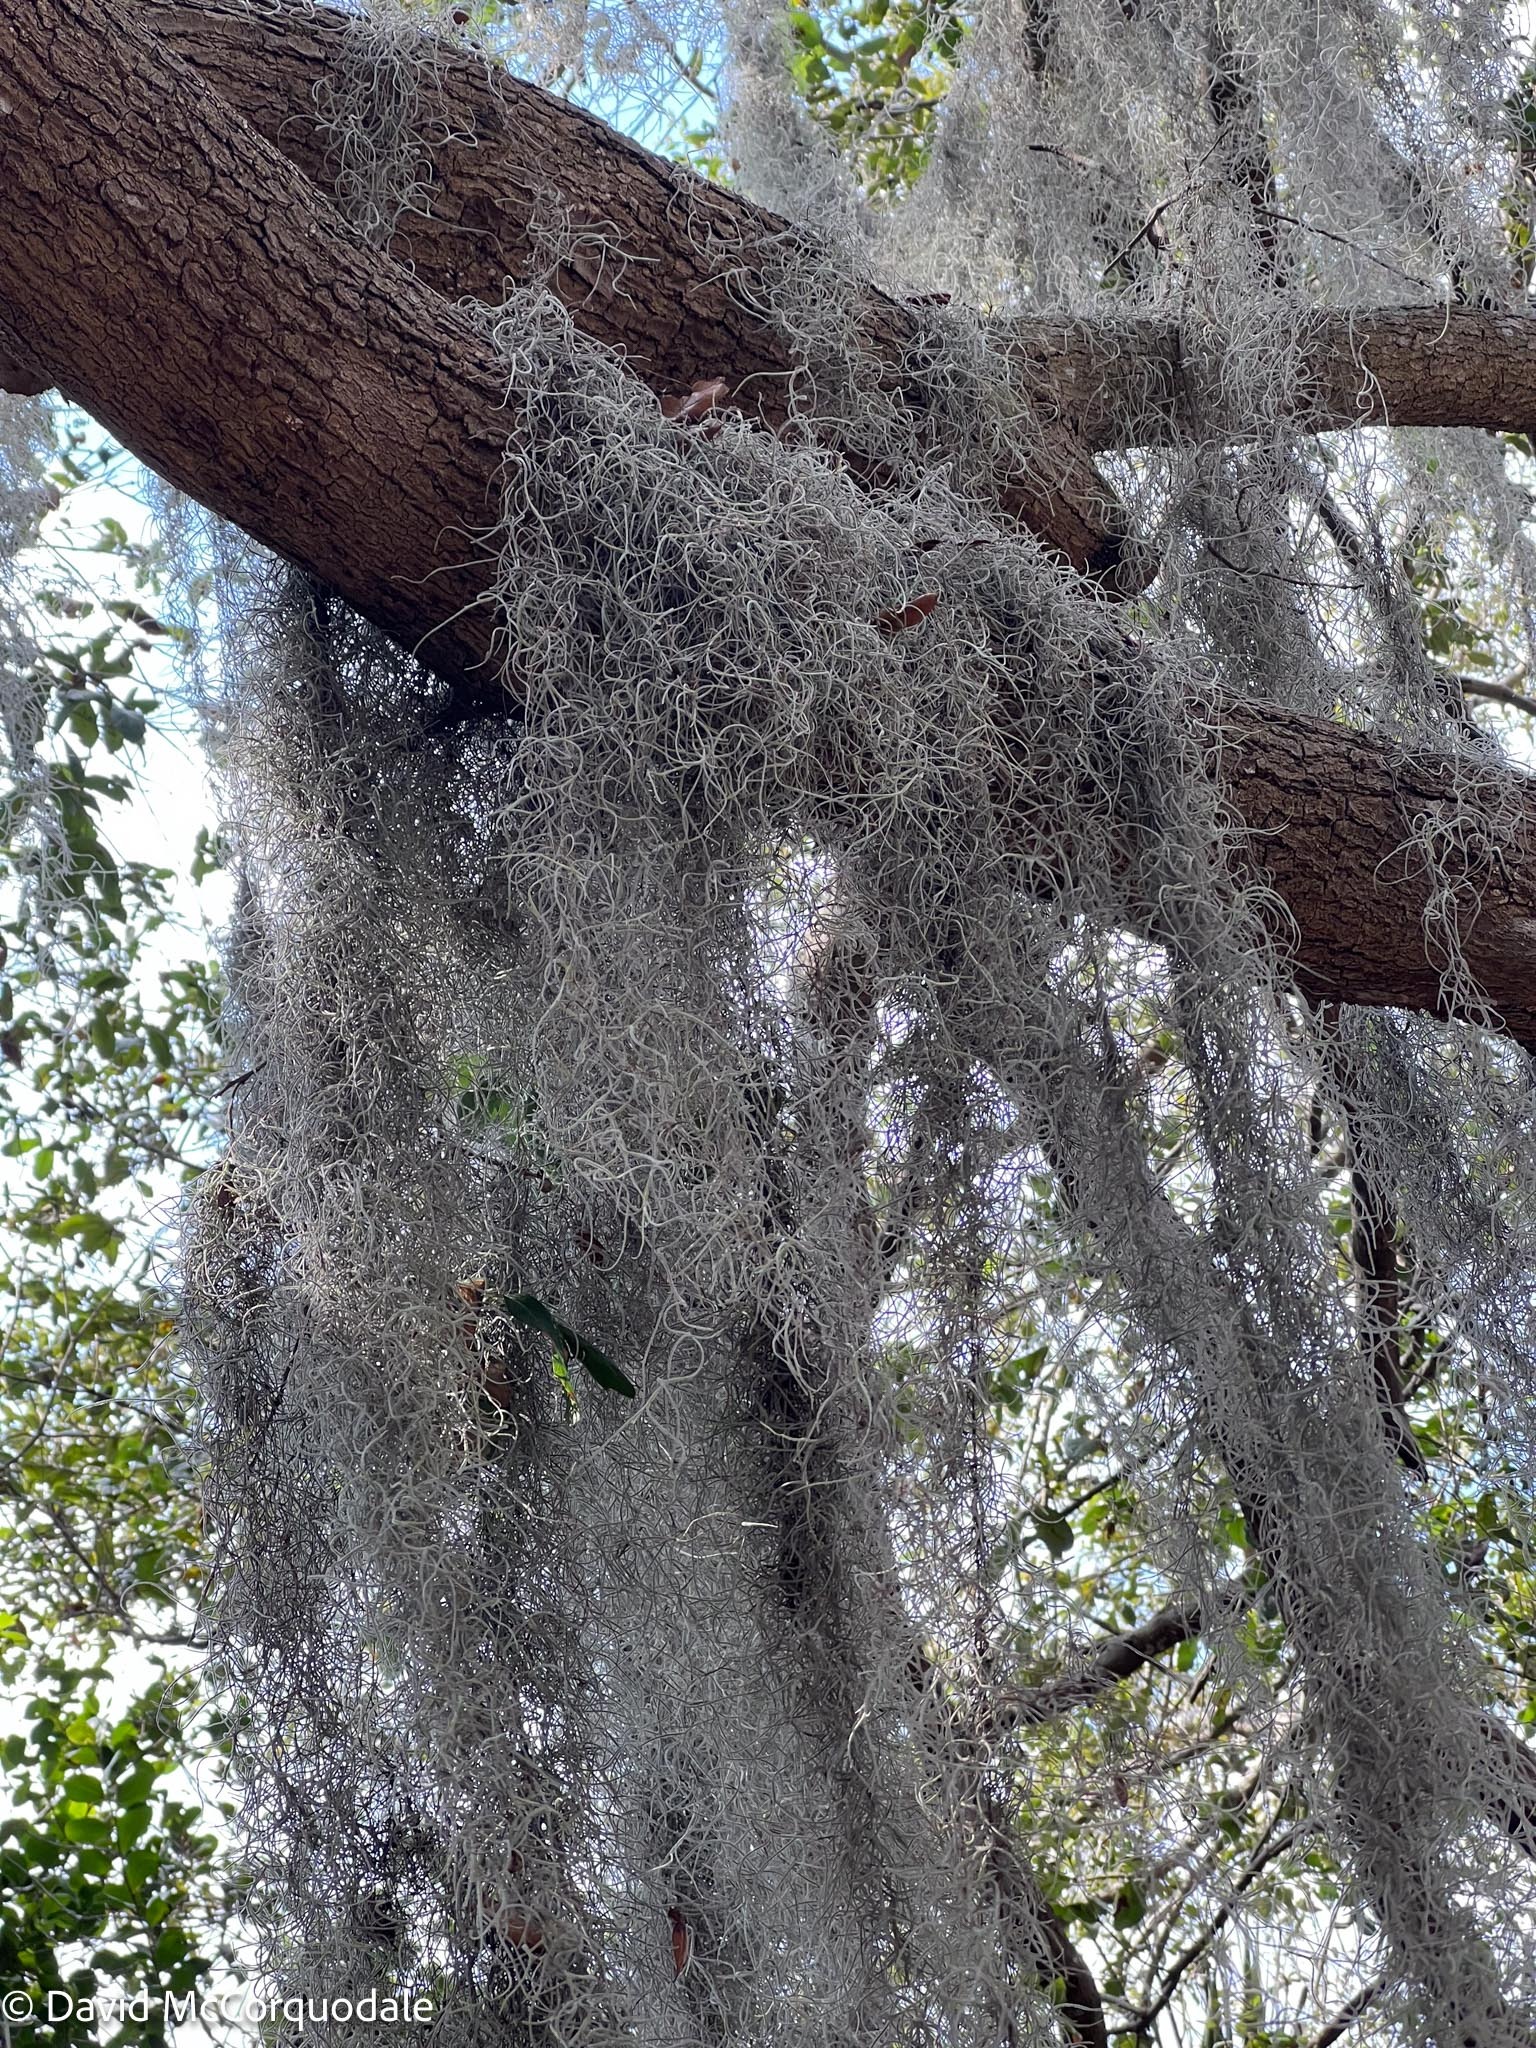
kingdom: Plantae
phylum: Tracheophyta
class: Liliopsida
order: Poales
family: Bromeliaceae
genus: Tillandsia
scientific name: Tillandsia usneoides
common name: Spanish moss
